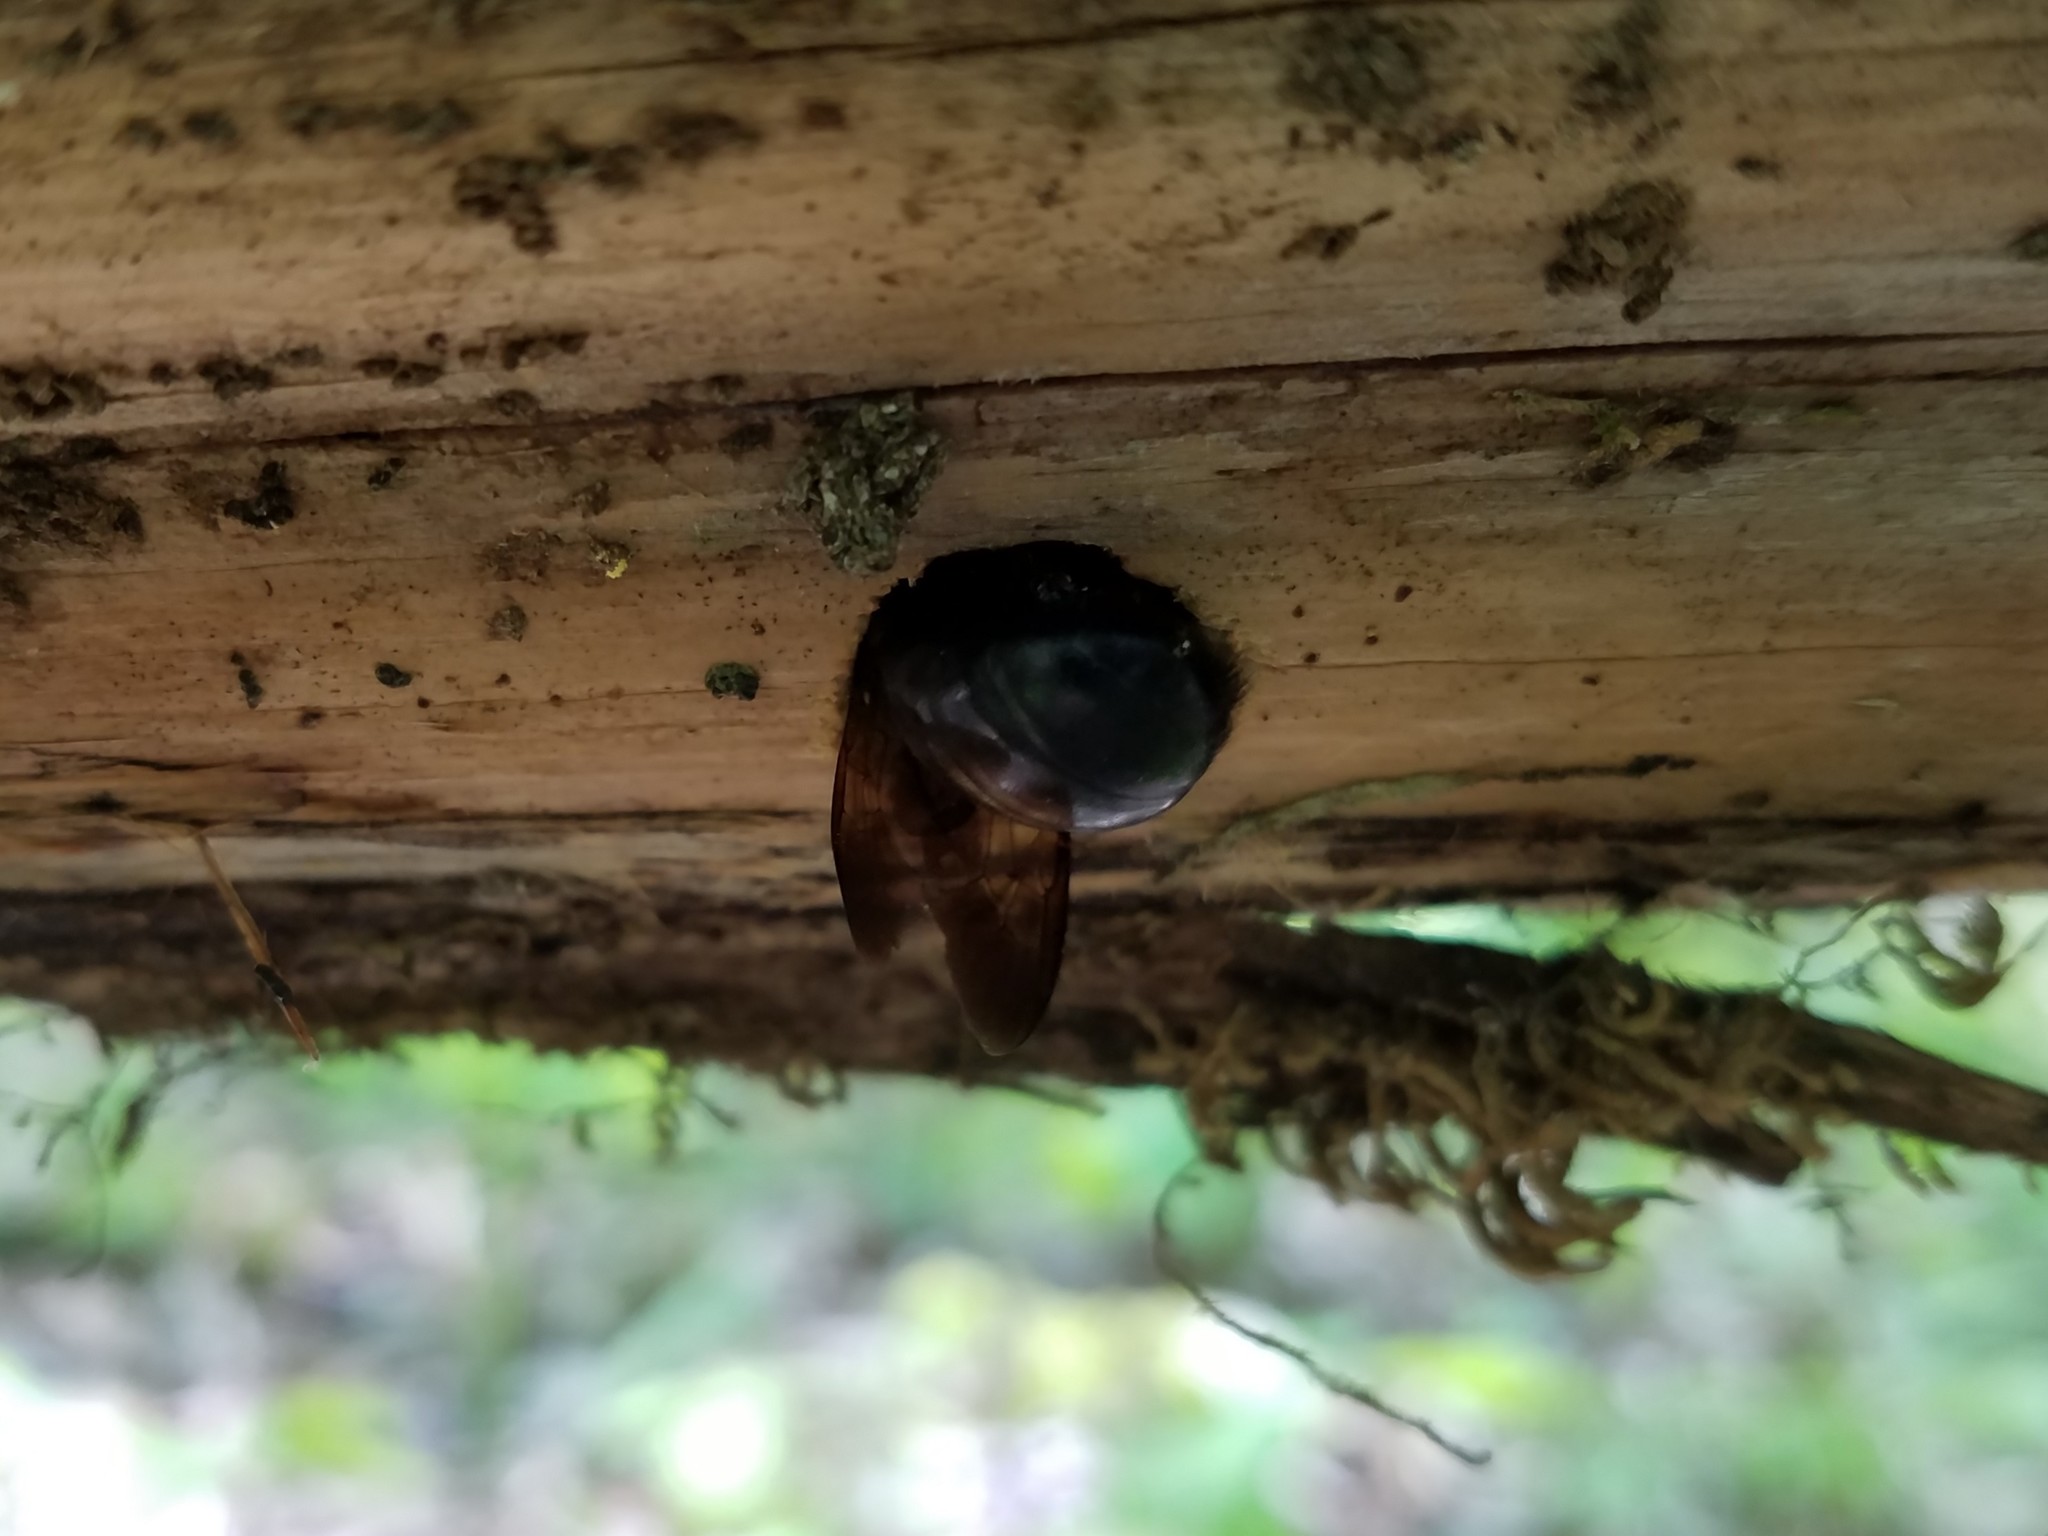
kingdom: Animalia
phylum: Arthropoda
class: Insecta
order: Hymenoptera
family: Apidae
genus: Xylocopa
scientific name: Xylocopa virginica
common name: Carpenter bee
